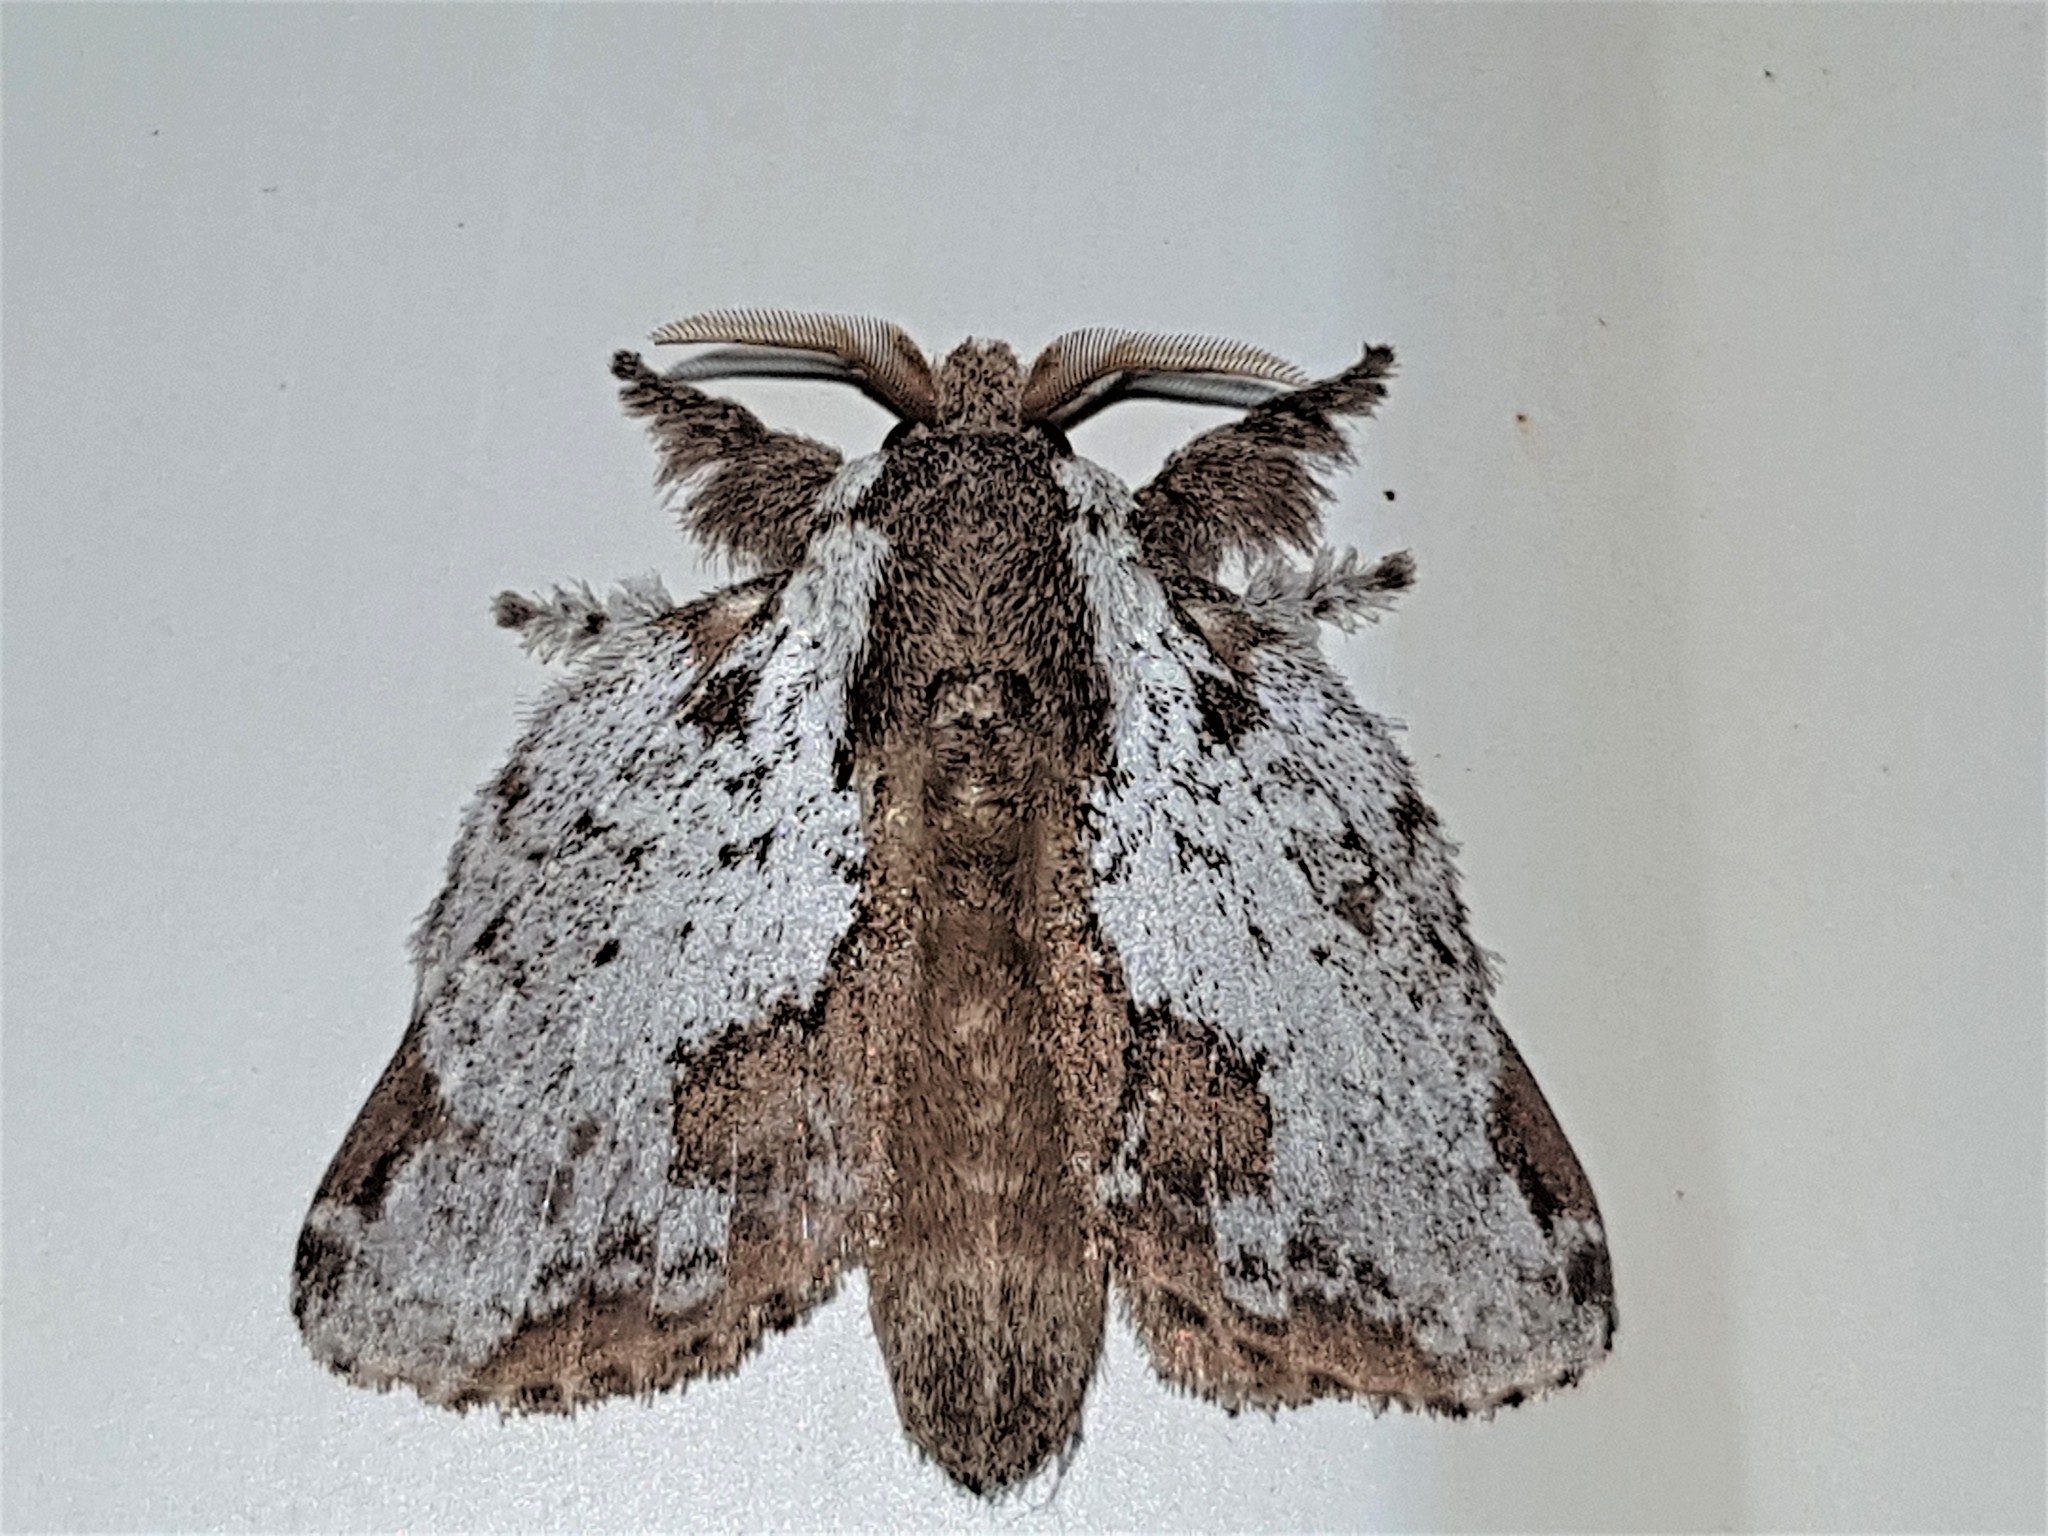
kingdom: Animalia
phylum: Arthropoda
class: Insecta
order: Lepidoptera
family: Lasiocampidae
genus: Euglyphis
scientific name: Euglyphis braganza
